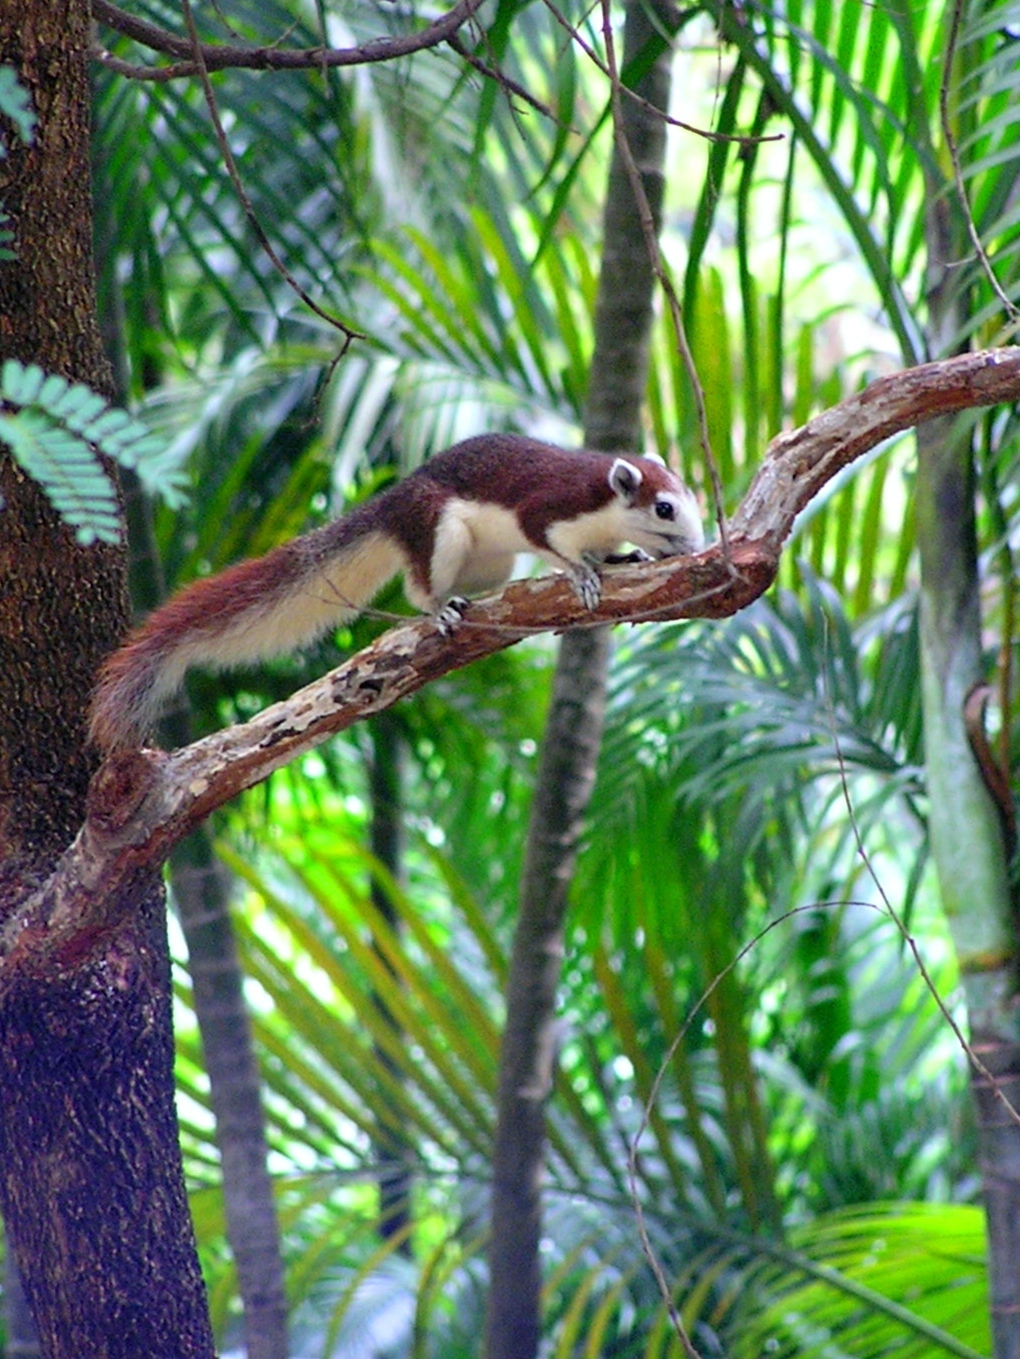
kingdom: Animalia
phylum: Chordata
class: Mammalia
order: Rodentia
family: Sciuridae
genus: Callosciurus
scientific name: Callosciurus finlaysonii
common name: Finlayson's squirrel
